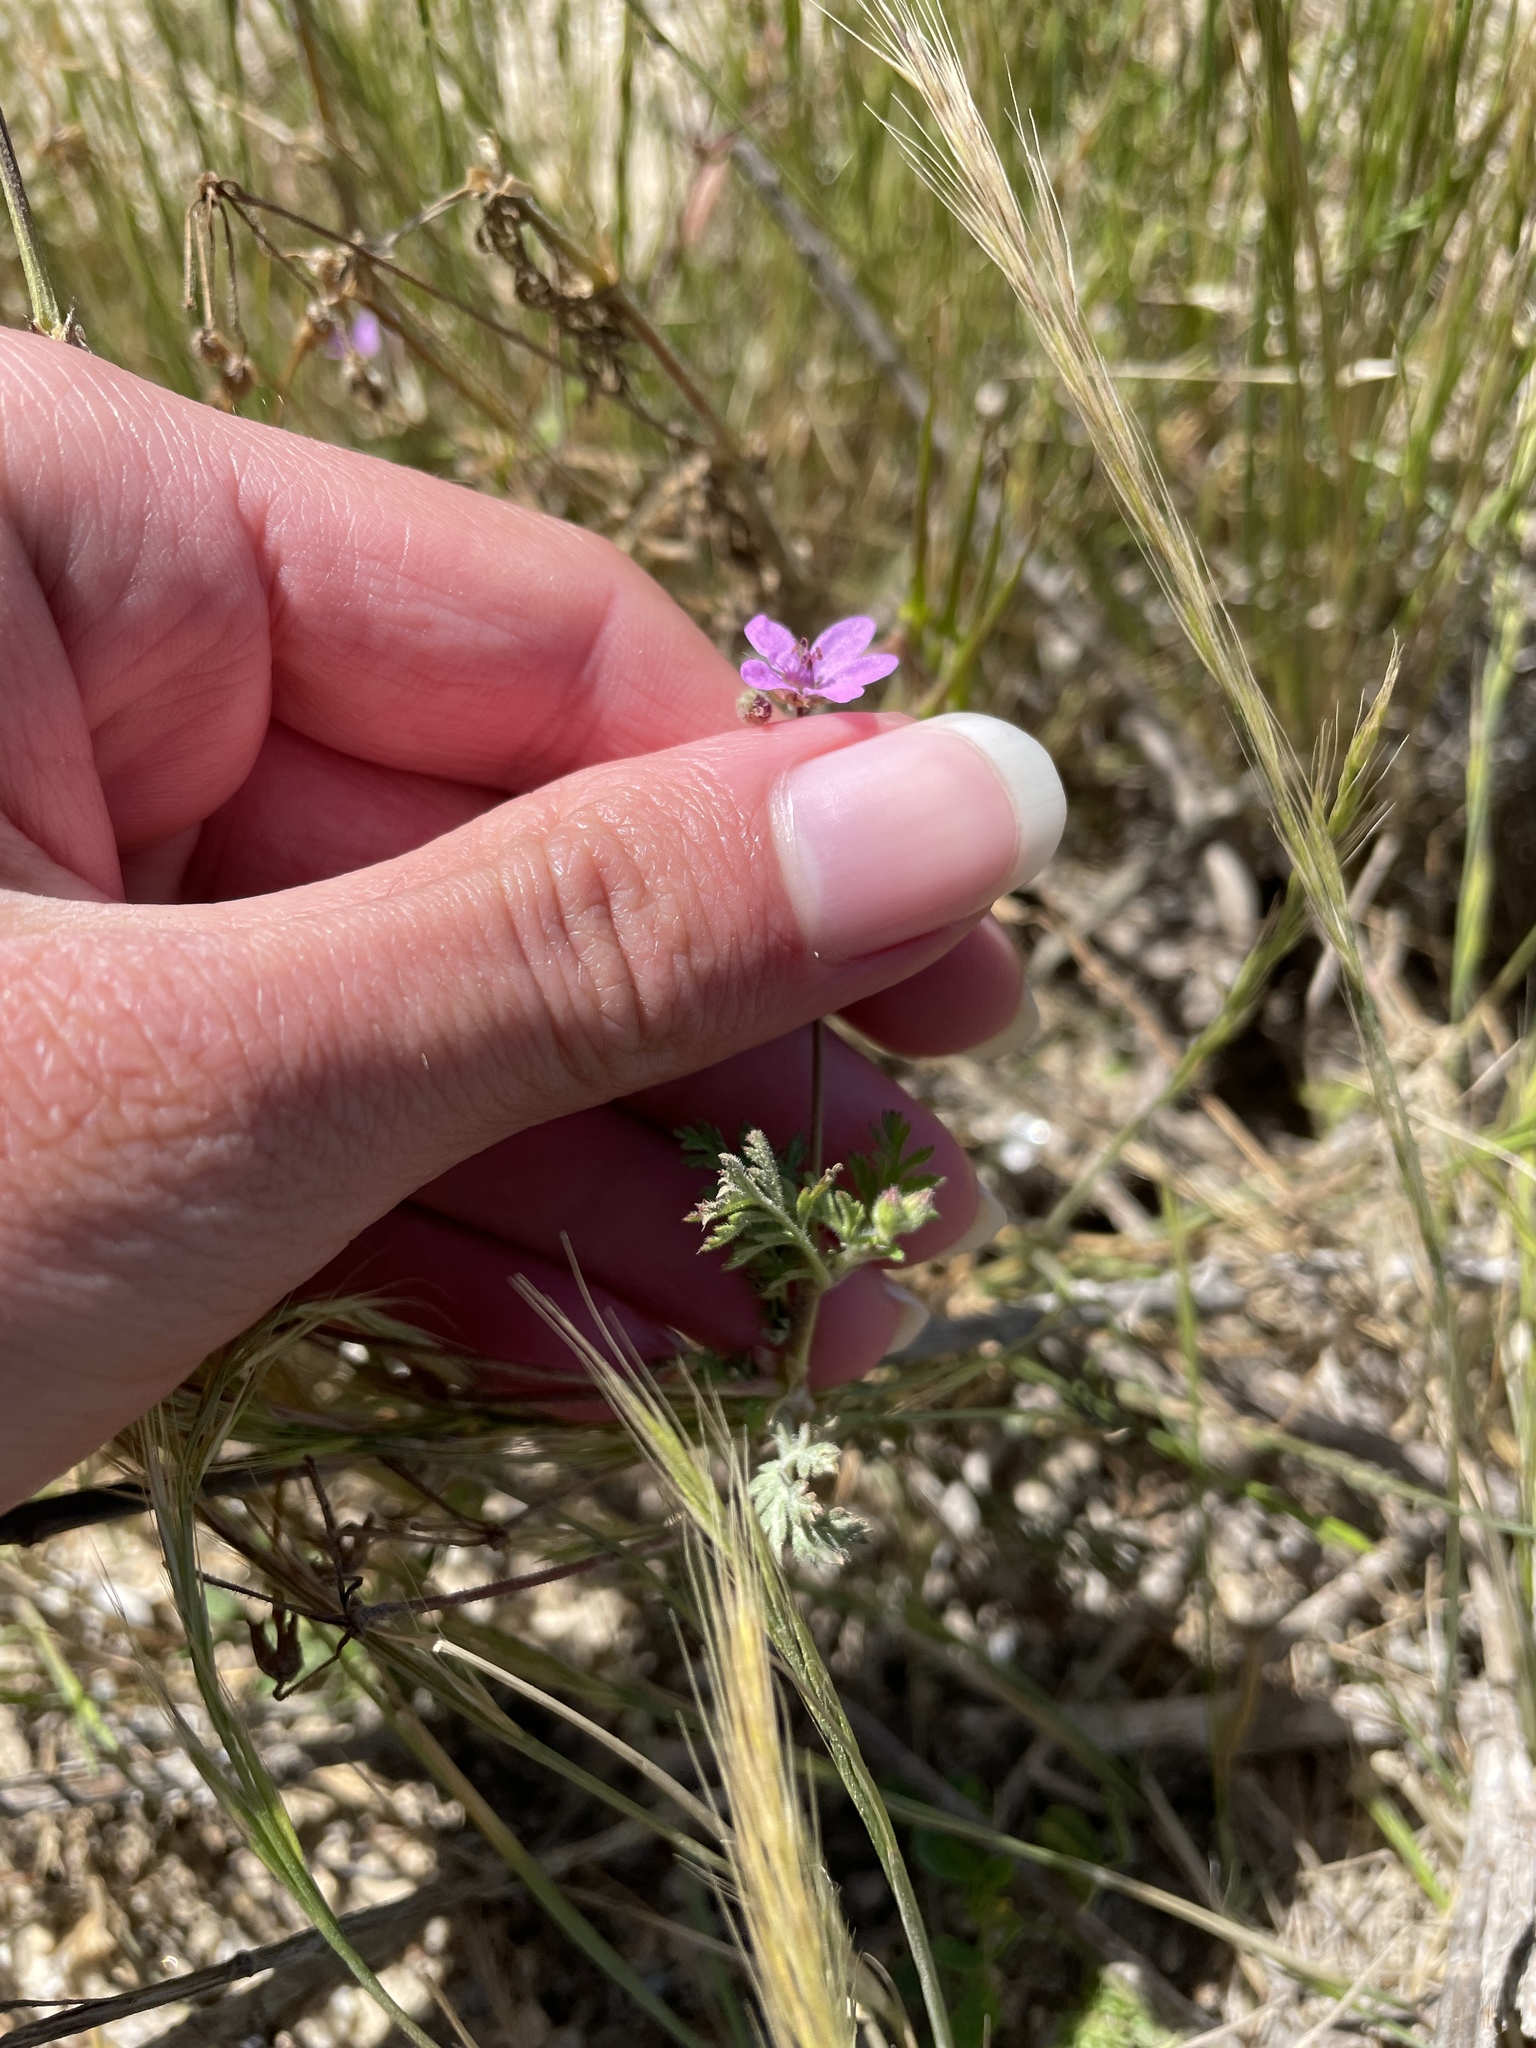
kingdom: Plantae
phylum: Tracheophyta
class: Magnoliopsida
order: Geraniales
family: Geraniaceae
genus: Erodium
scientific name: Erodium cicutarium
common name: Common stork's-bill
